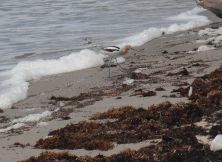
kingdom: Animalia
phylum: Chordata
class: Aves
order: Charadriiformes
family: Recurvirostridae
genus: Recurvirostra
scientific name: Recurvirostra americana
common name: American avocet
